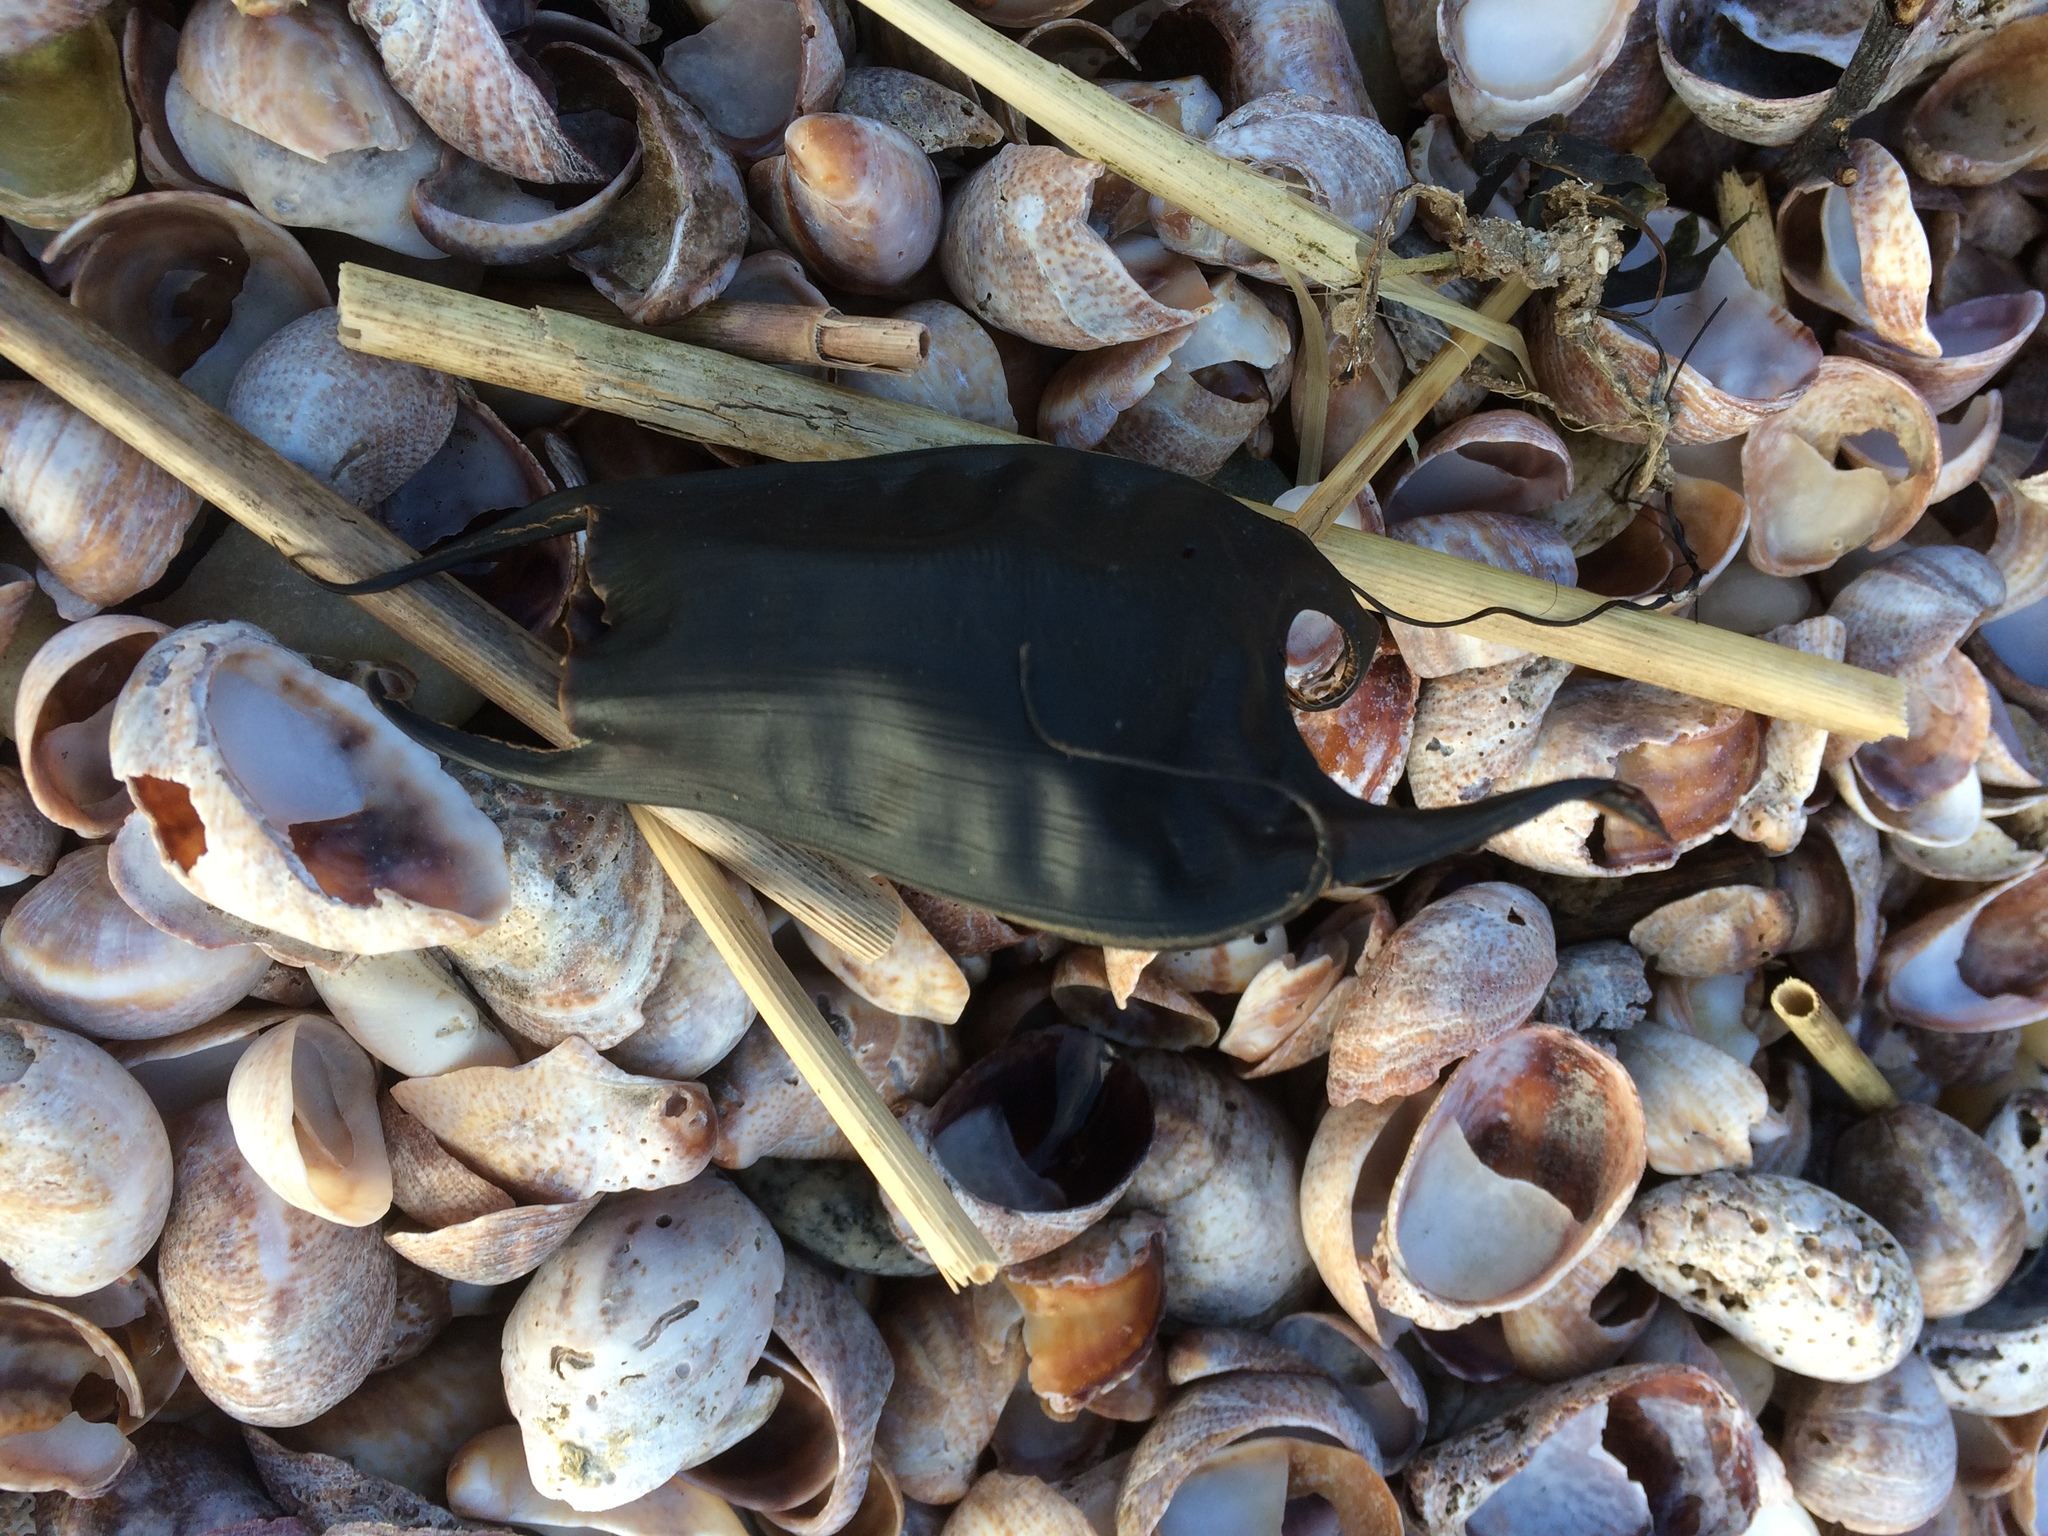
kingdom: Animalia
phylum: Chordata
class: Elasmobranchii
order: Rajiformes
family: Rajidae
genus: Raja
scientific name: Raja eglanteria
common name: Clearnose skate
